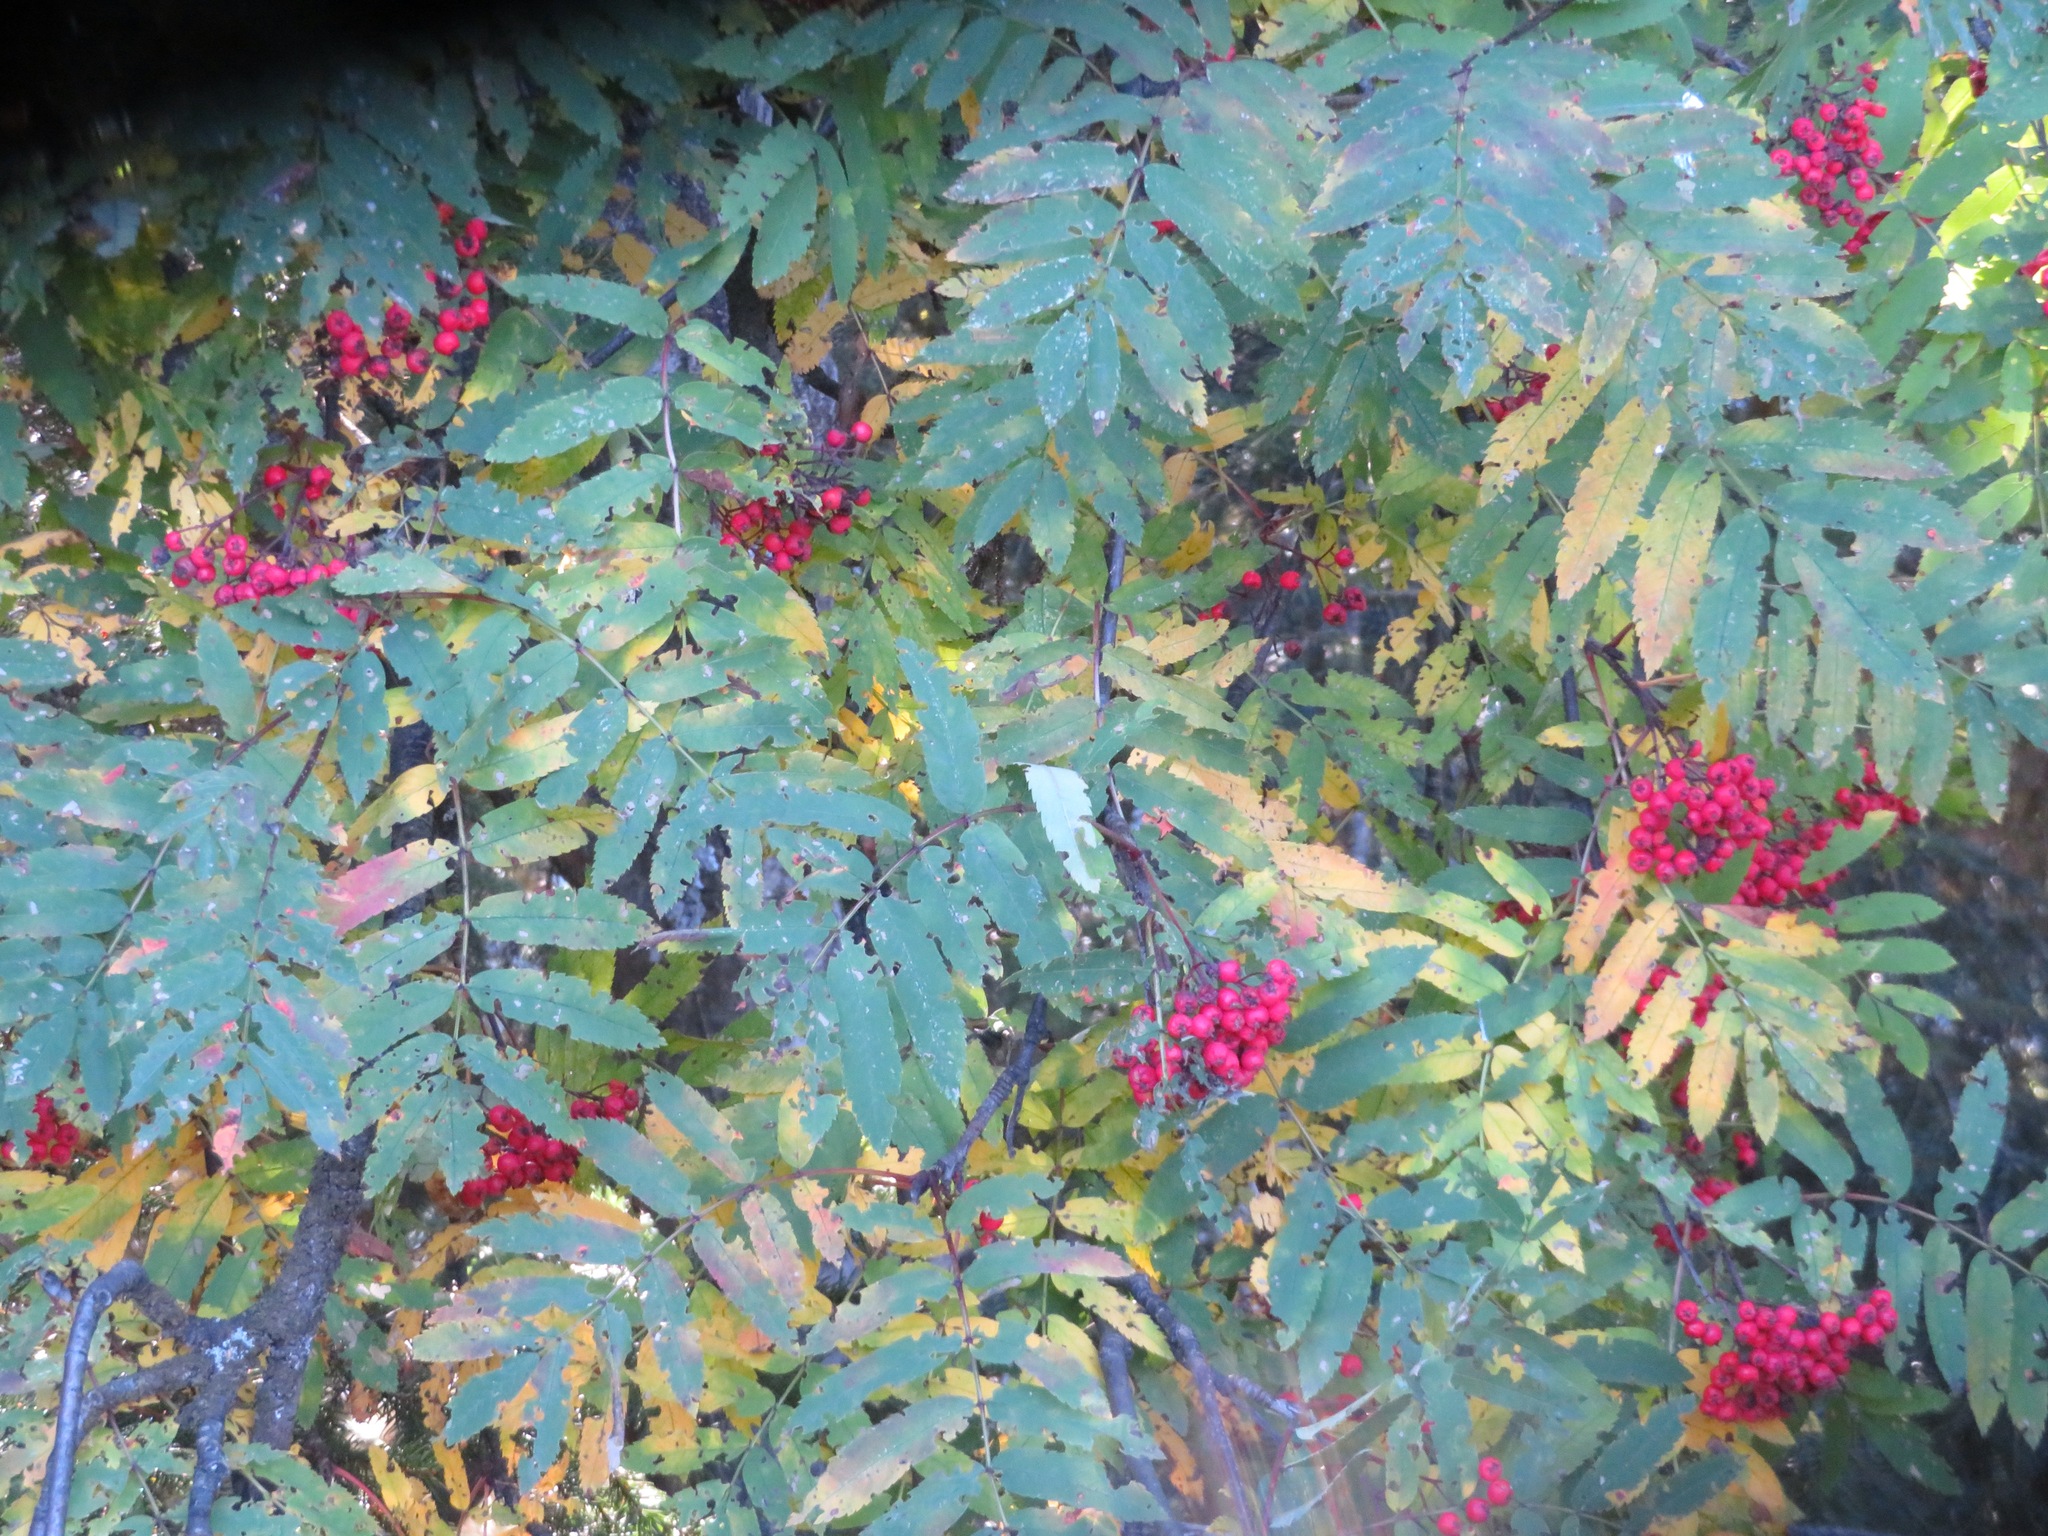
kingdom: Plantae
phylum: Tracheophyta
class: Magnoliopsida
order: Rosales
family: Rosaceae
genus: Sorbus
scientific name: Sorbus aucuparia
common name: Rowan
